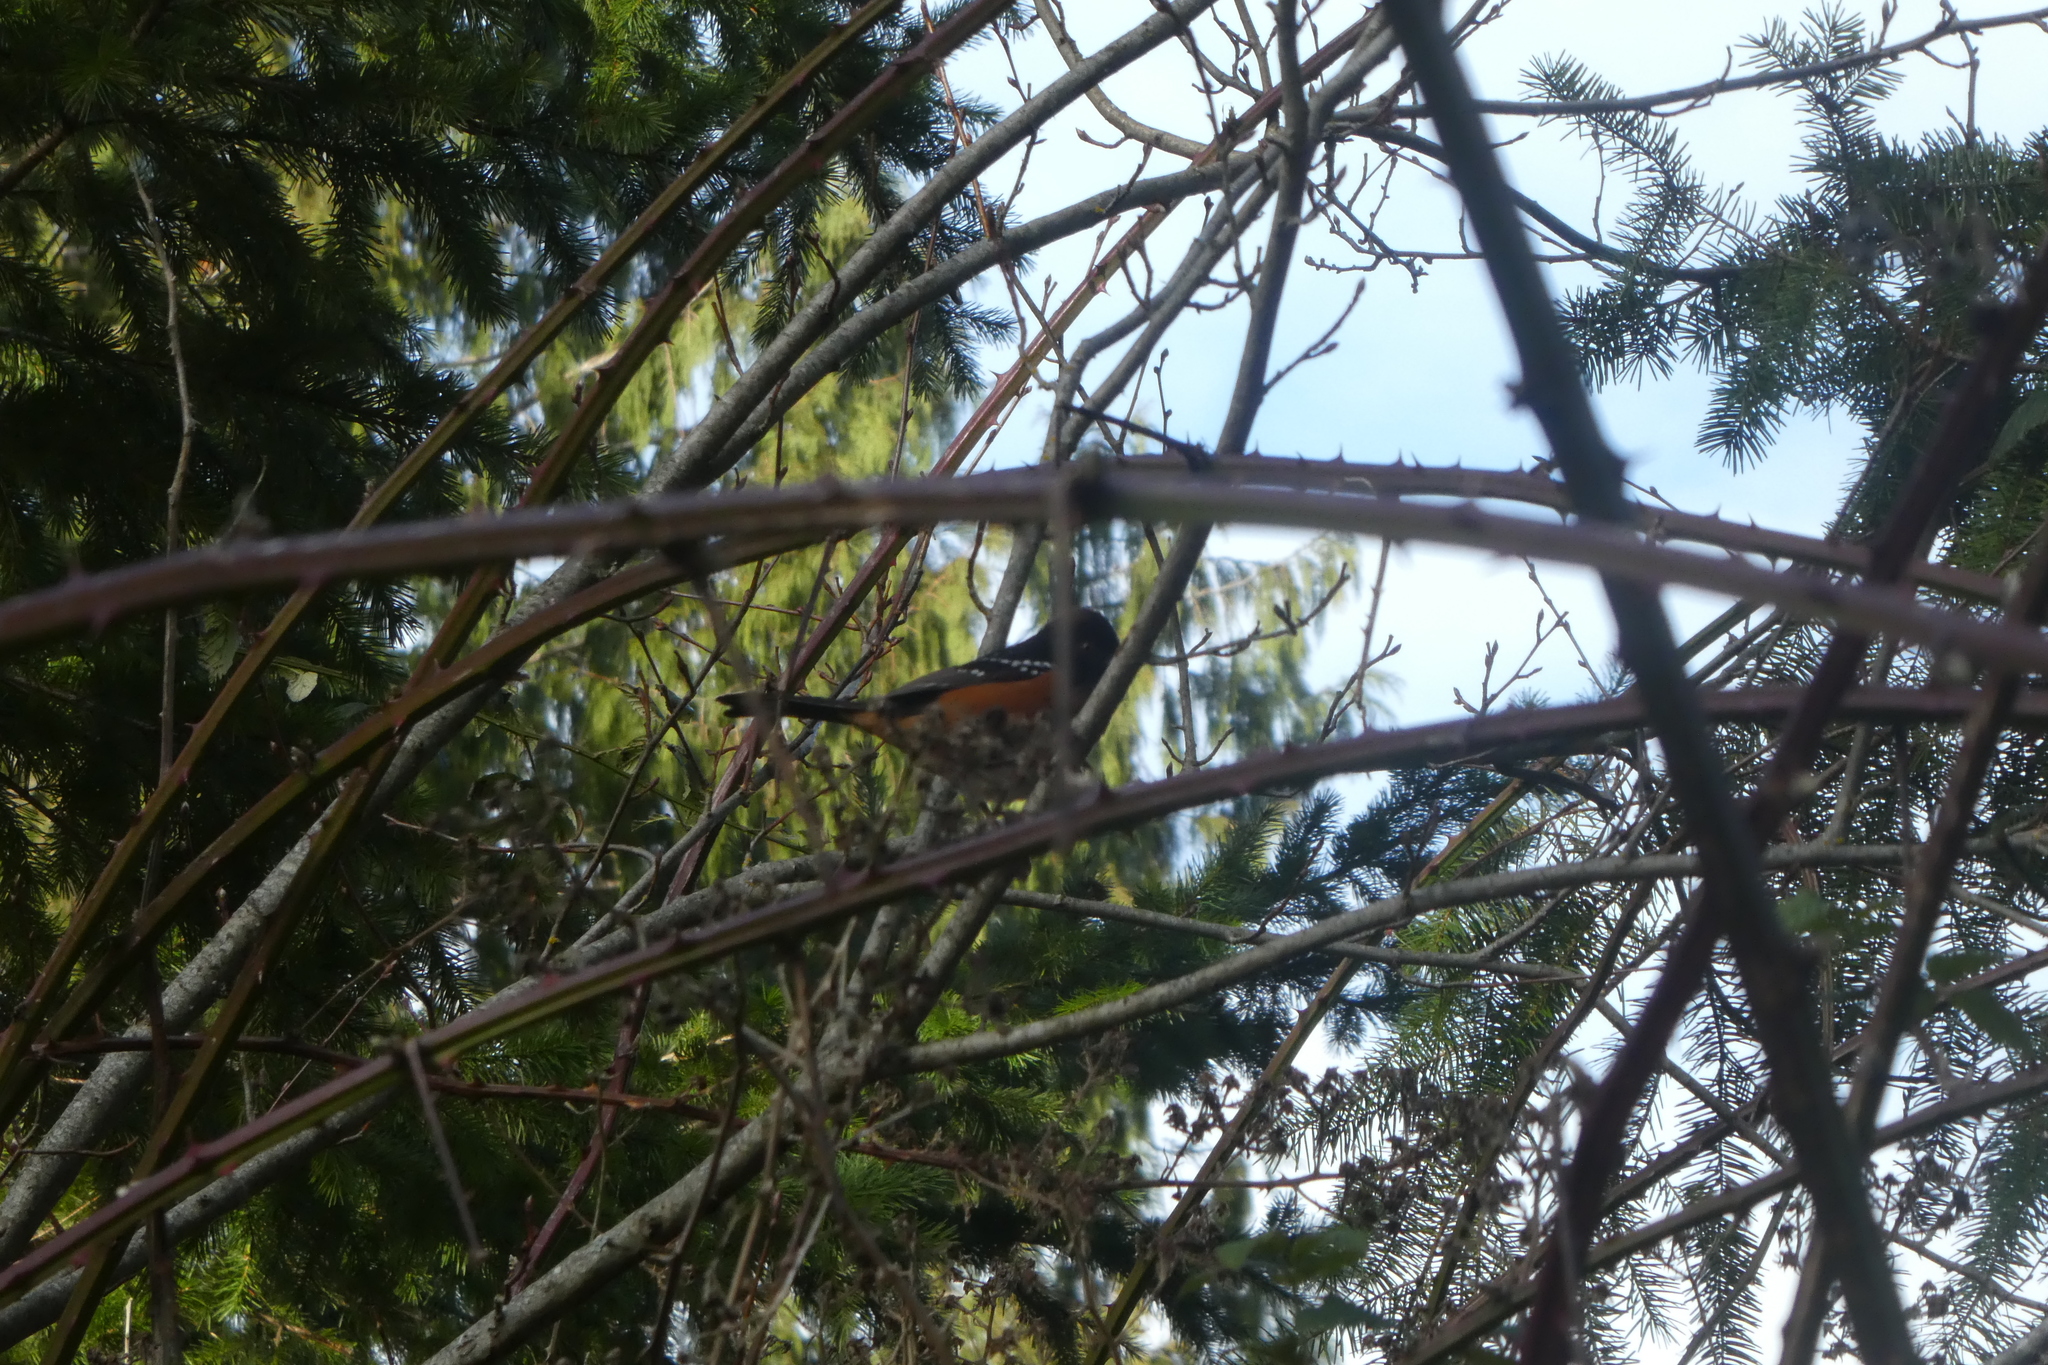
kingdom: Animalia
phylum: Chordata
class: Aves
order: Passeriformes
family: Passerellidae
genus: Pipilo
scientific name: Pipilo maculatus
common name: Spotted towhee
